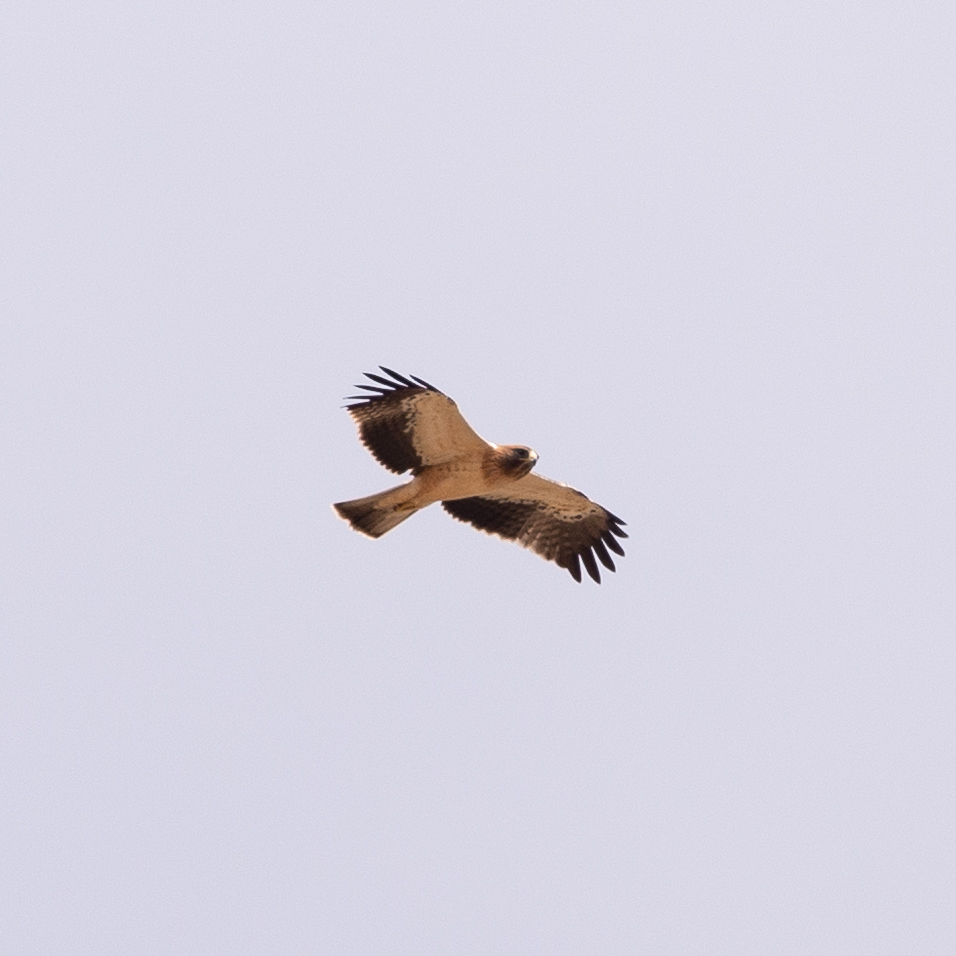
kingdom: Animalia
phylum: Chordata
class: Aves
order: Accipitriformes
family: Accipitridae
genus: Hieraaetus
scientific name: Hieraaetus pennatus
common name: Booted eagle
